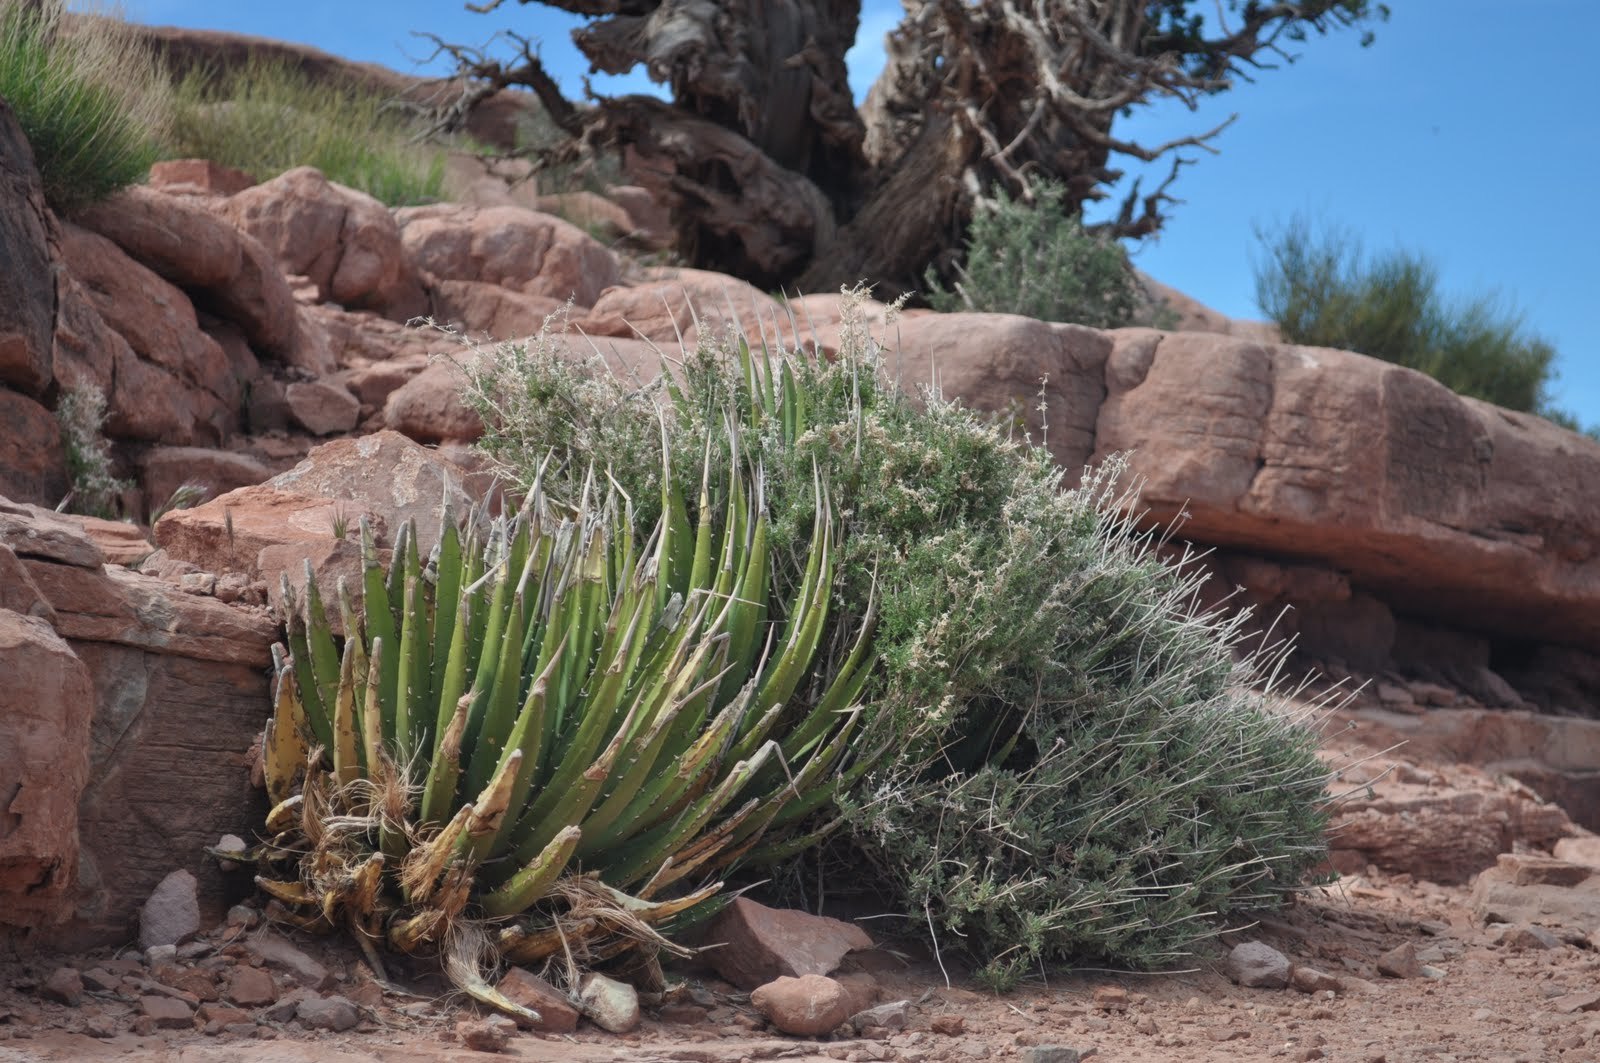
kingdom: Plantae
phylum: Tracheophyta
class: Liliopsida
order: Asparagales
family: Asparagaceae
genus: Agave
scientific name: Agave utahensis
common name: Utah agave
